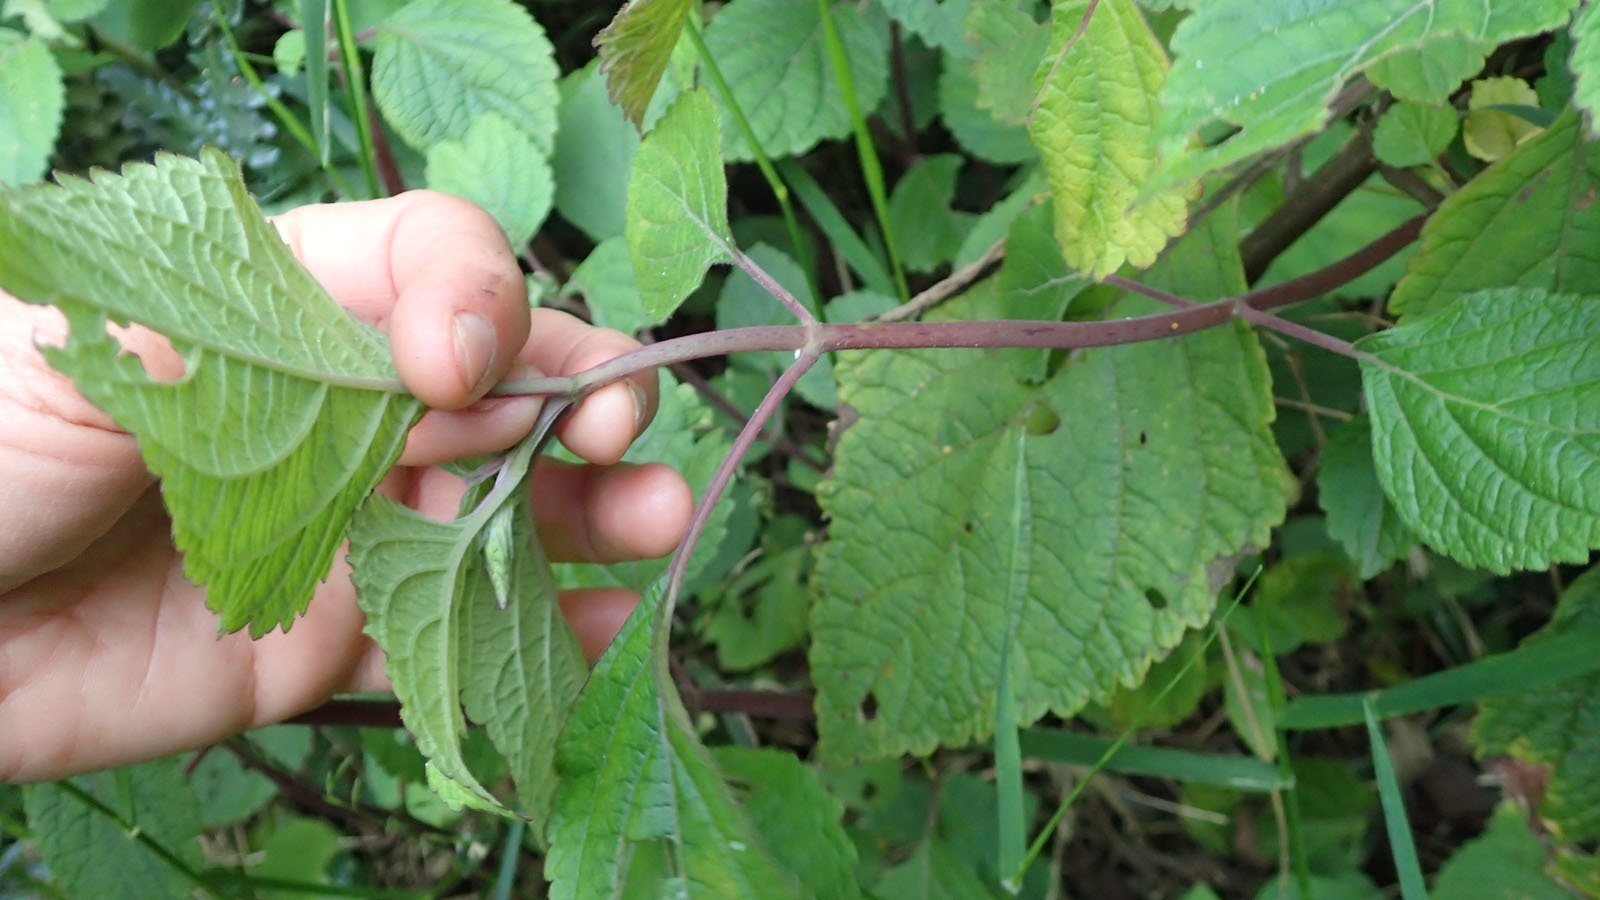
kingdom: Plantae
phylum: Tracheophyta
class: Magnoliopsida
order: Lamiales
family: Lamiaceae
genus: Plectranthus
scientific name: Plectranthus fruticosus
